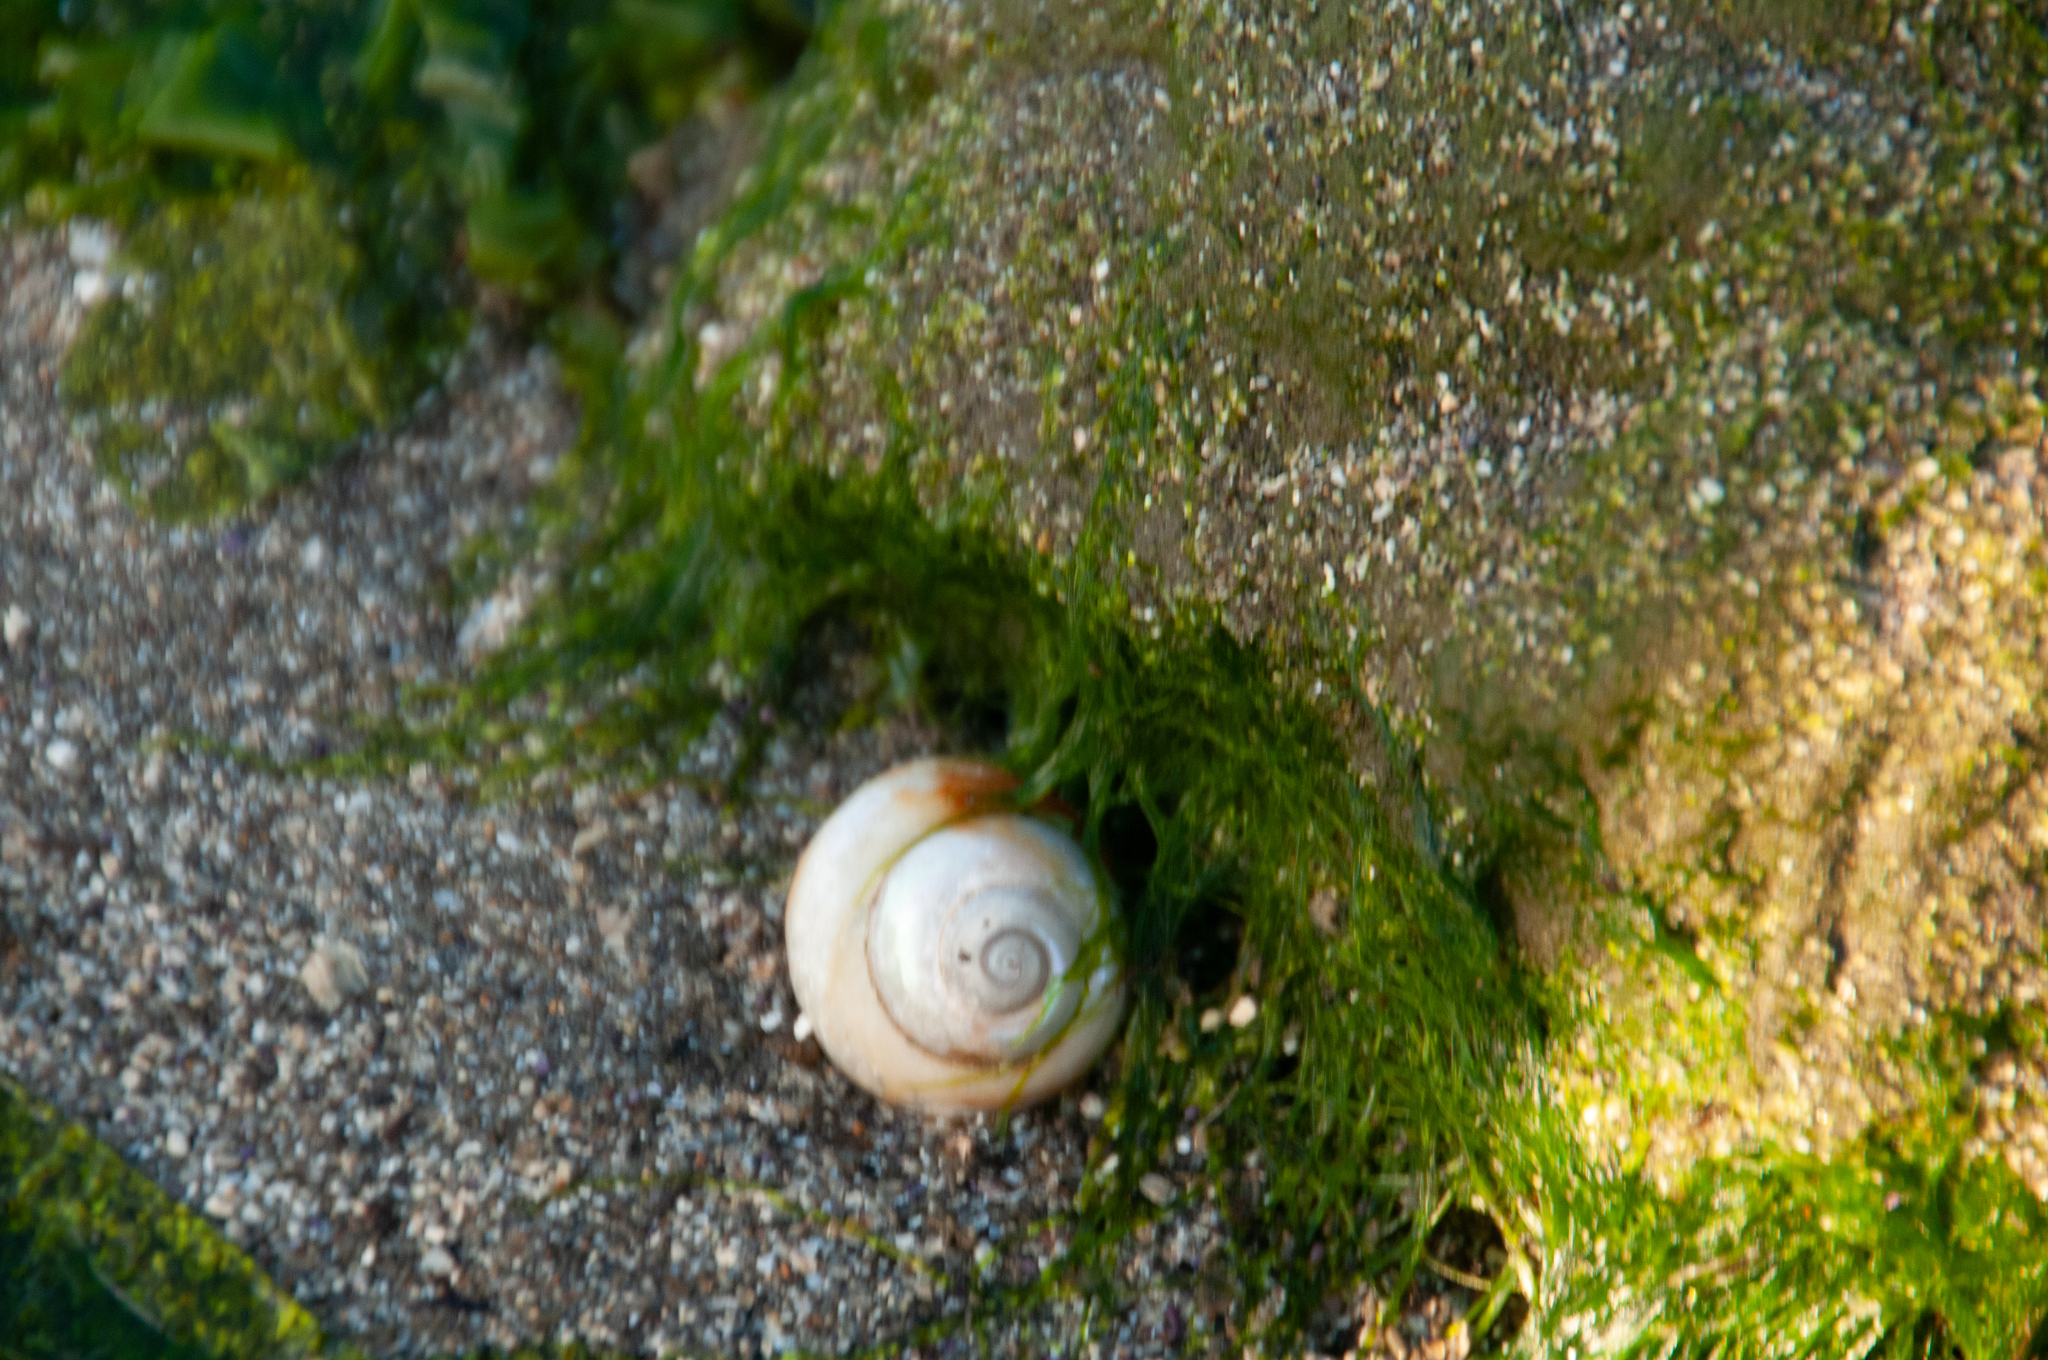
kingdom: Animalia
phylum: Mollusca
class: Gastropoda
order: Trochida
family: Tegulidae
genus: Tegula
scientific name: Tegula brunnea
